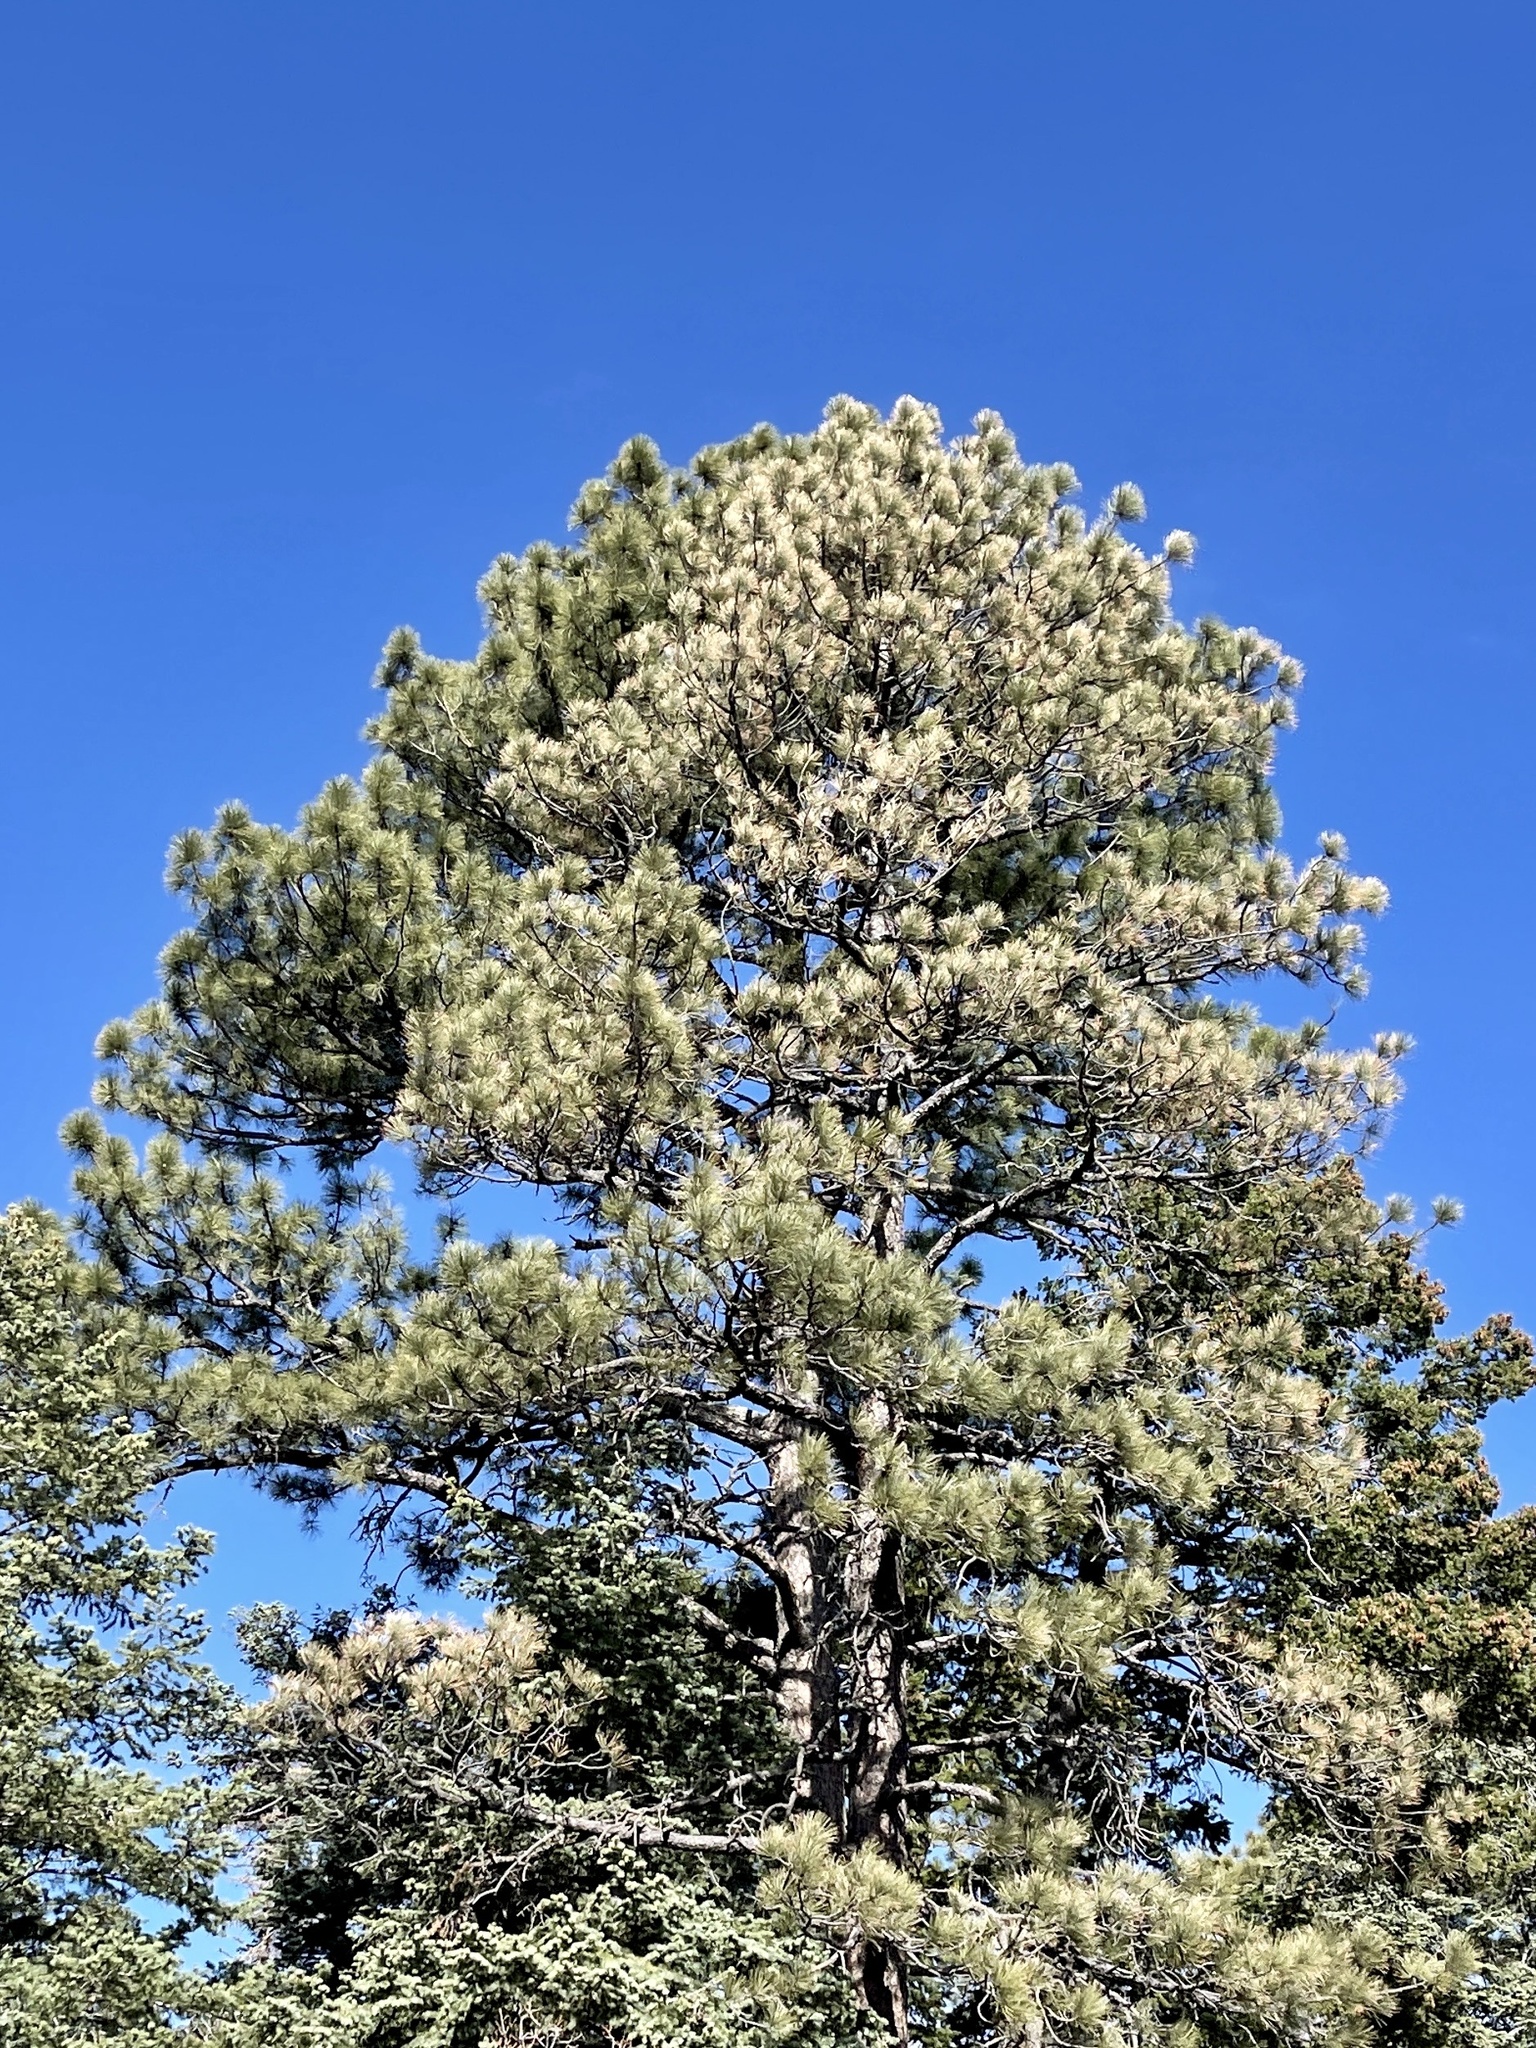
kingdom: Plantae
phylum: Tracheophyta
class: Pinopsida
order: Pinales
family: Pinaceae
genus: Pinus
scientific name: Pinus ponderosa
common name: Western yellow-pine
